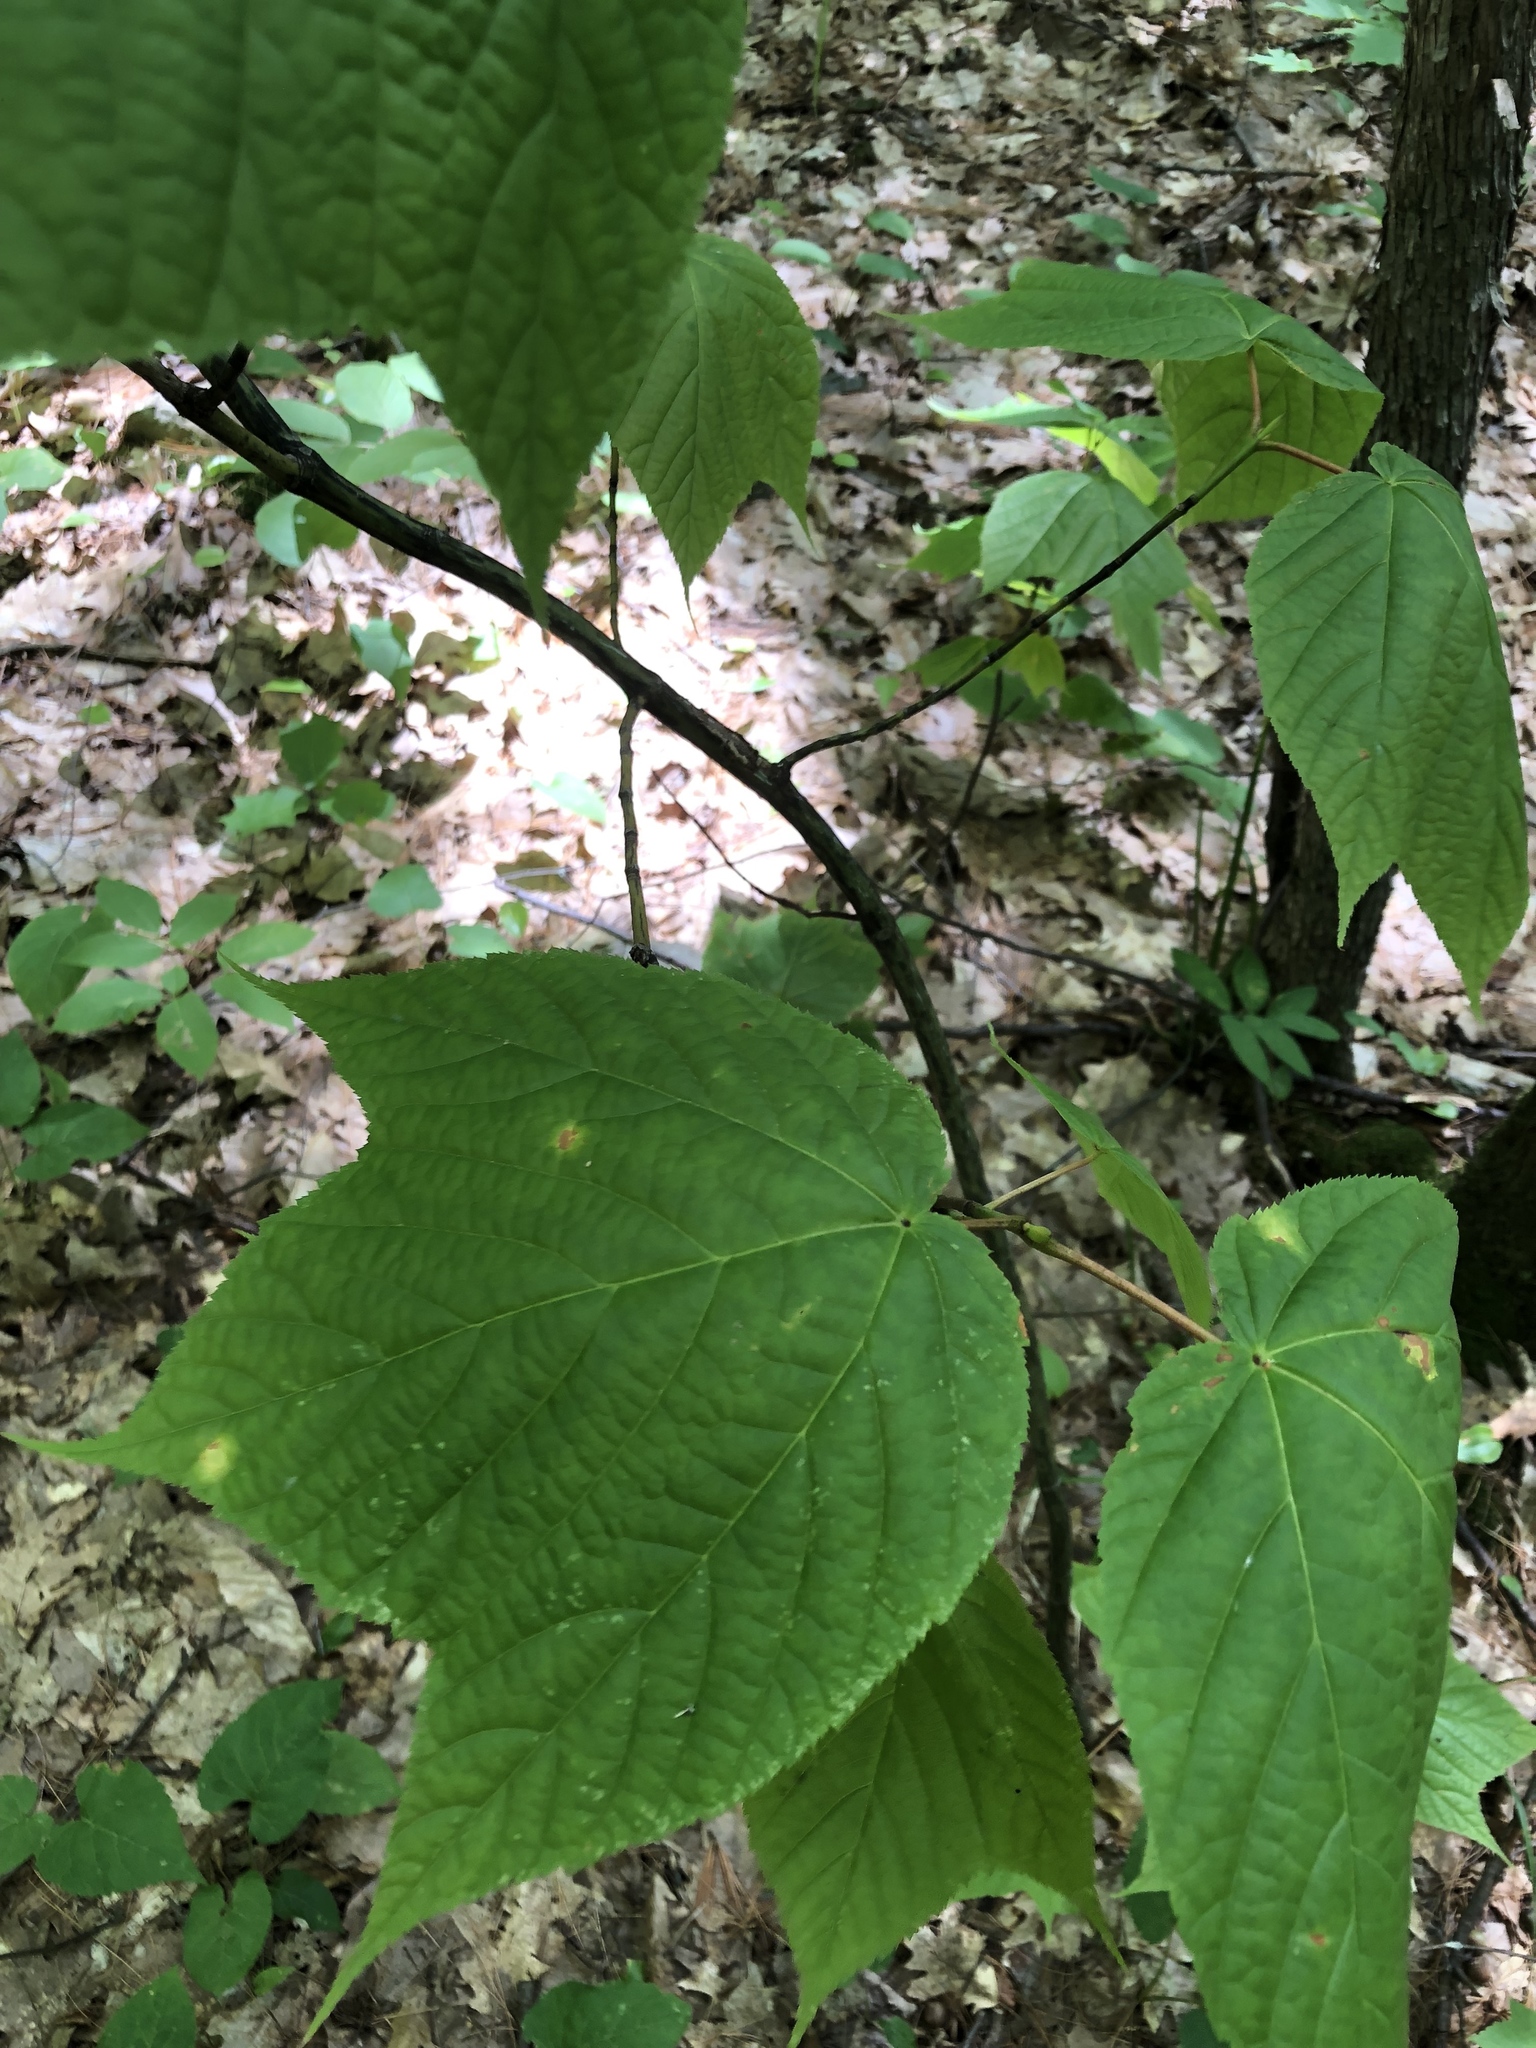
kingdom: Plantae
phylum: Tracheophyta
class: Magnoliopsida
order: Sapindales
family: Sapindaceae
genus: Acer
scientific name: Acer pensylvanicum
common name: Moosewood
